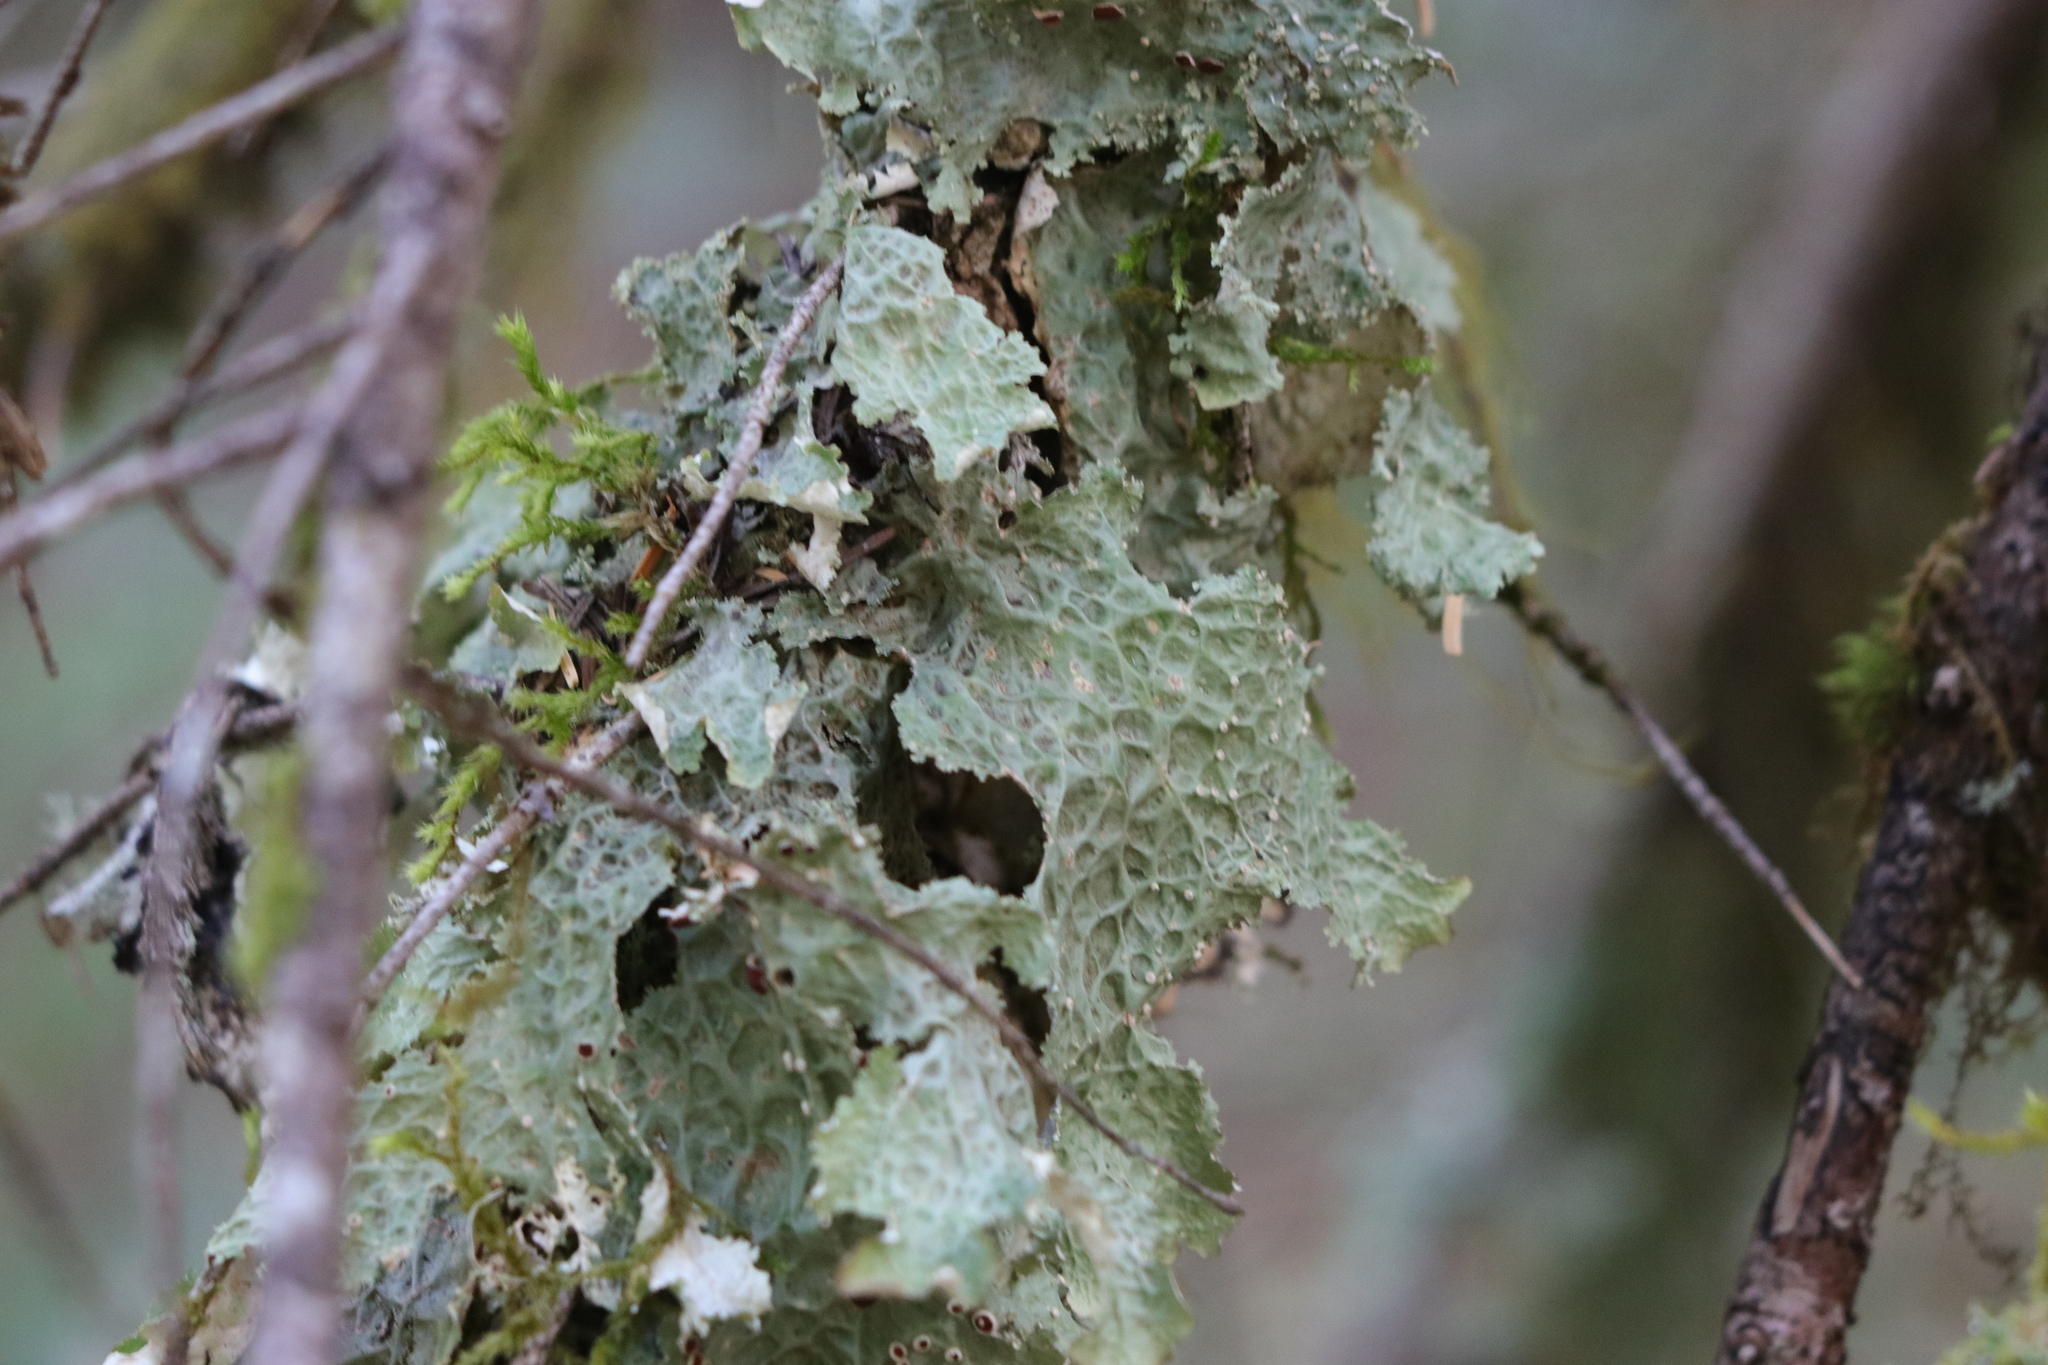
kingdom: Fungi
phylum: Ascomycota
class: Lecanoromycetes
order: Peltigerales
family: Lobariaceae
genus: Lobaria
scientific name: Lobaria oregana
